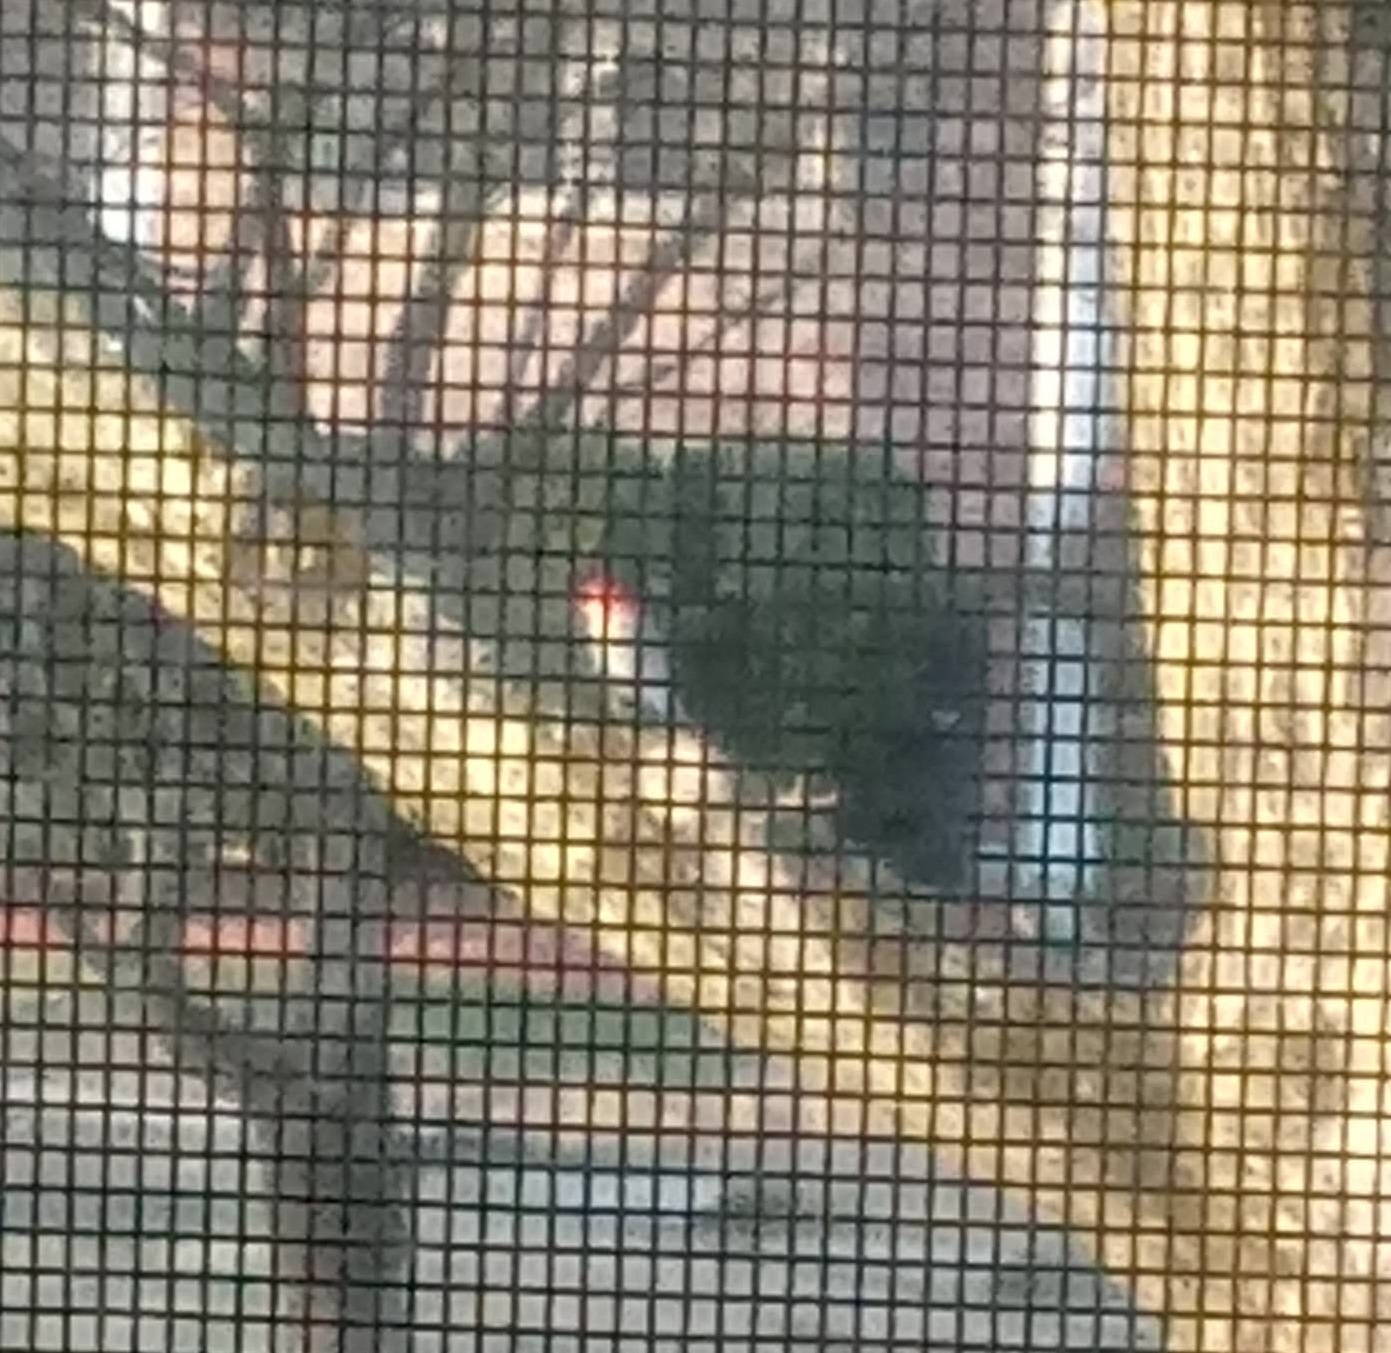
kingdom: Animalia
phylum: Chordata
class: Aves
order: Piciformes
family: Picidae
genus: Melanerpes
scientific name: Melanerpes carolinus
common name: Red-bellied woodpecker
